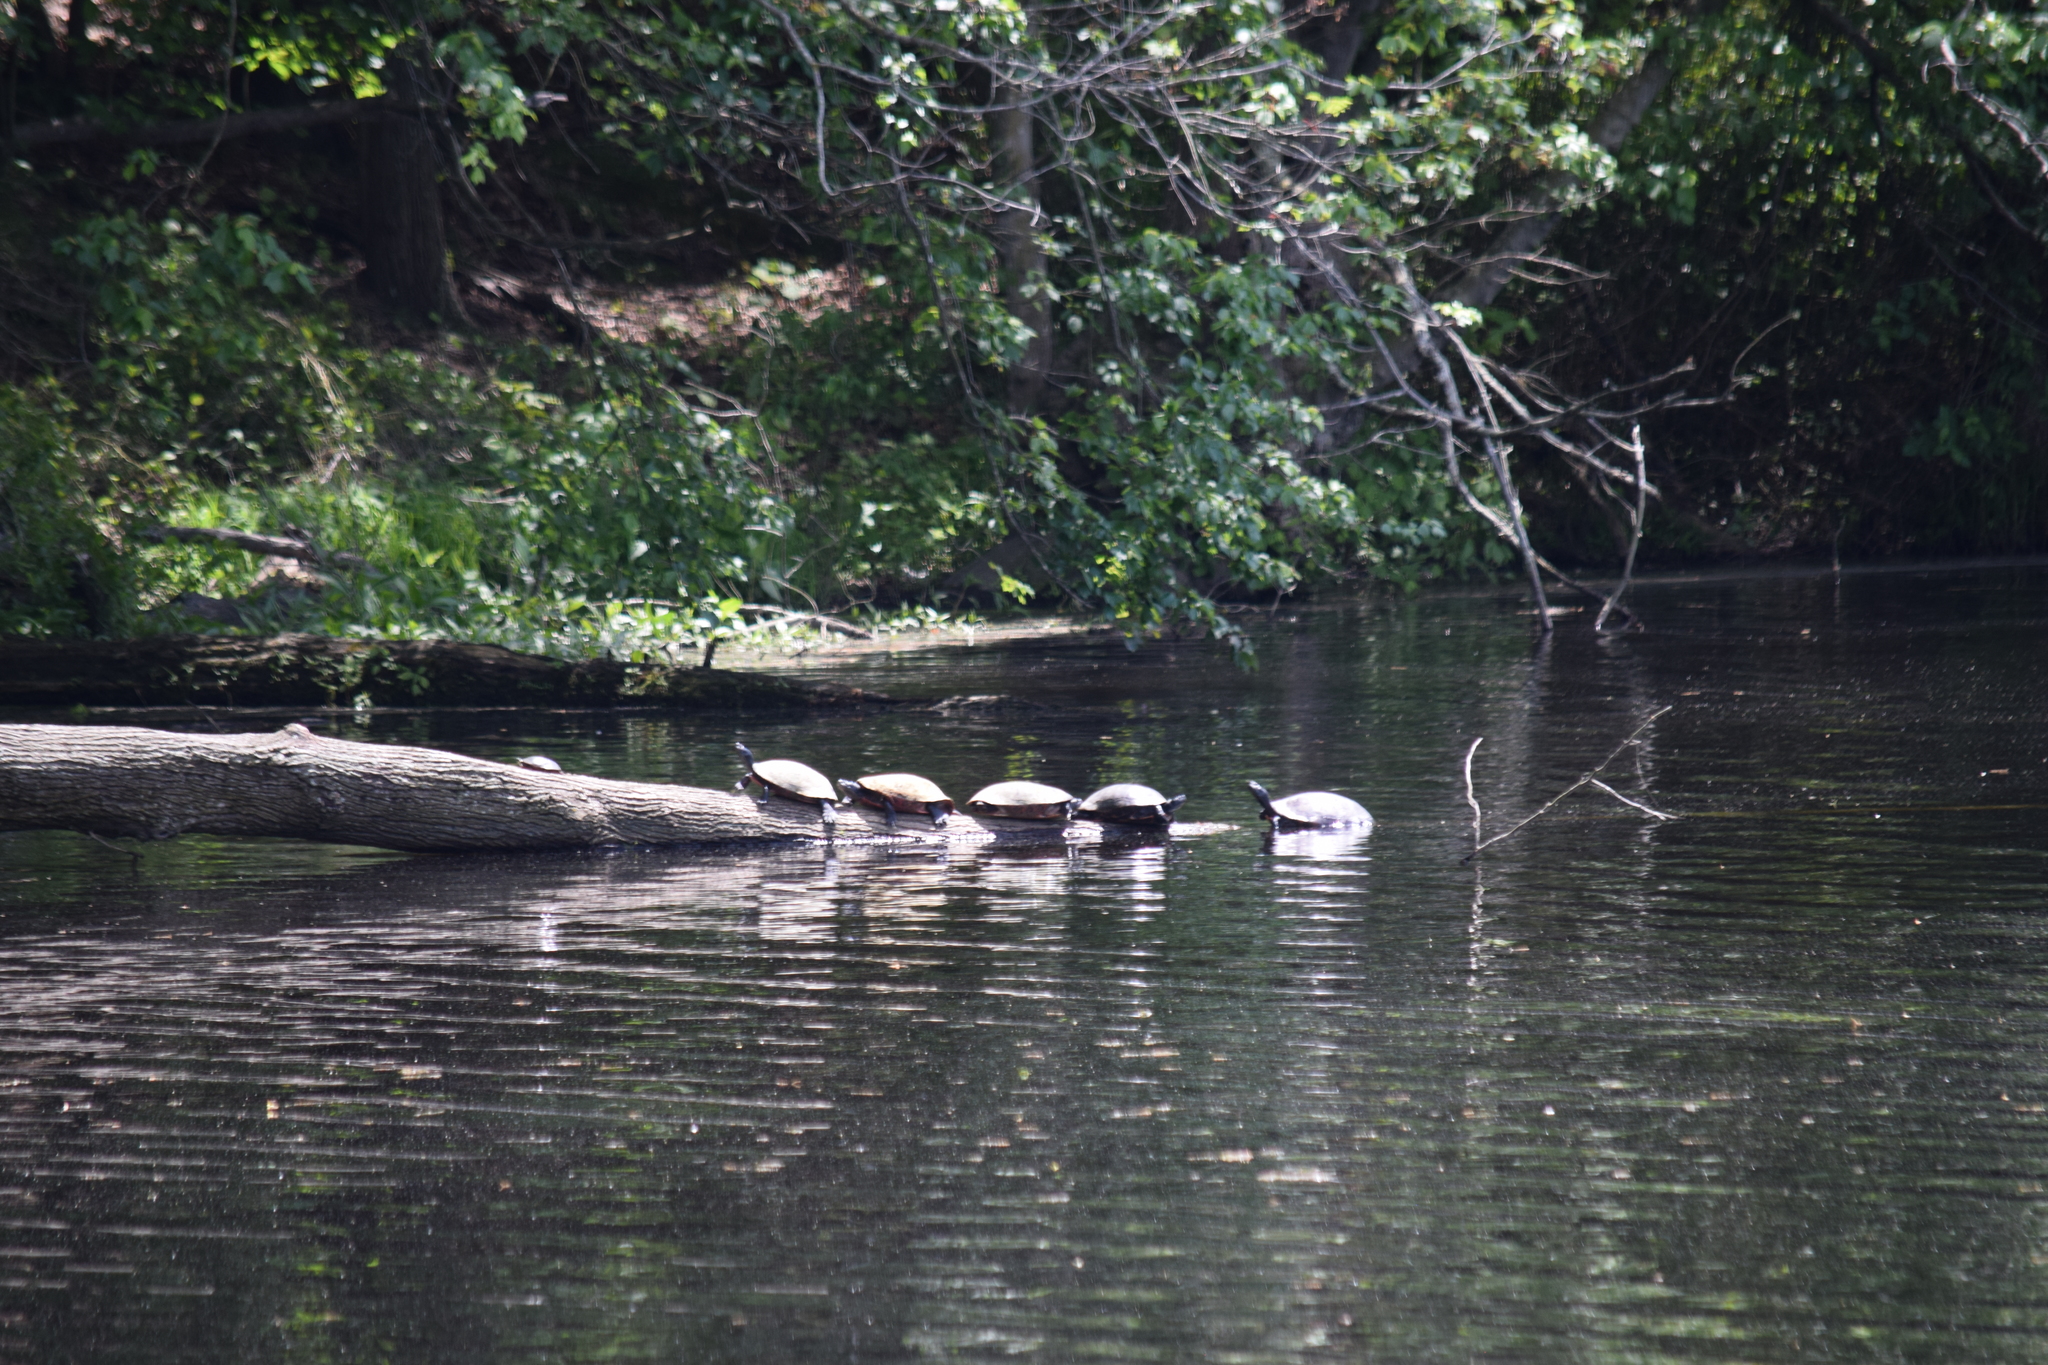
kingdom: Animalia
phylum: Chordata
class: Testudines
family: Emydidae
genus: Pseudemys
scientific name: Pseudemys rubriventris
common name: American red-bellied turtle
